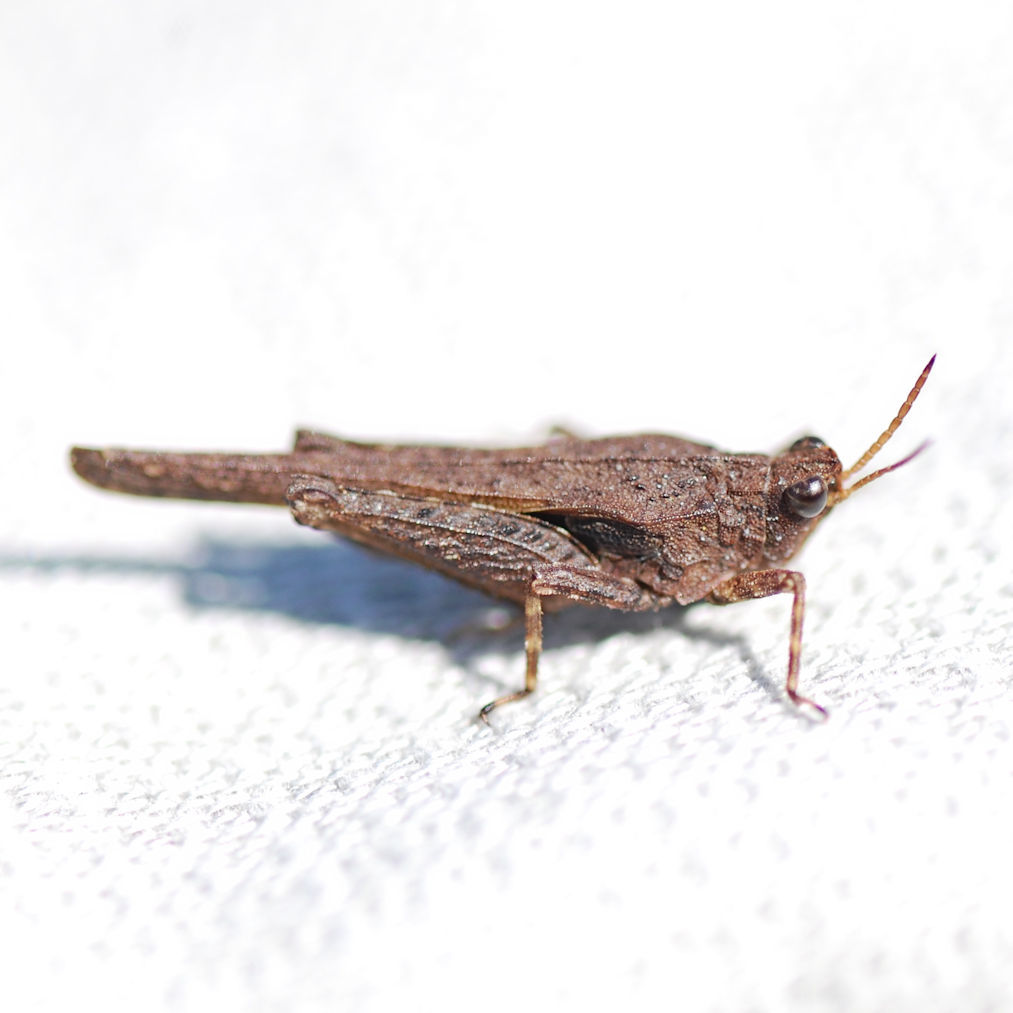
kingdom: Animalia
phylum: Arthropoda
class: Insecta
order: Orthoptera
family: Tetrigidae
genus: Tetrix
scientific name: Tetrix subulata
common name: Slender ground-hopper
